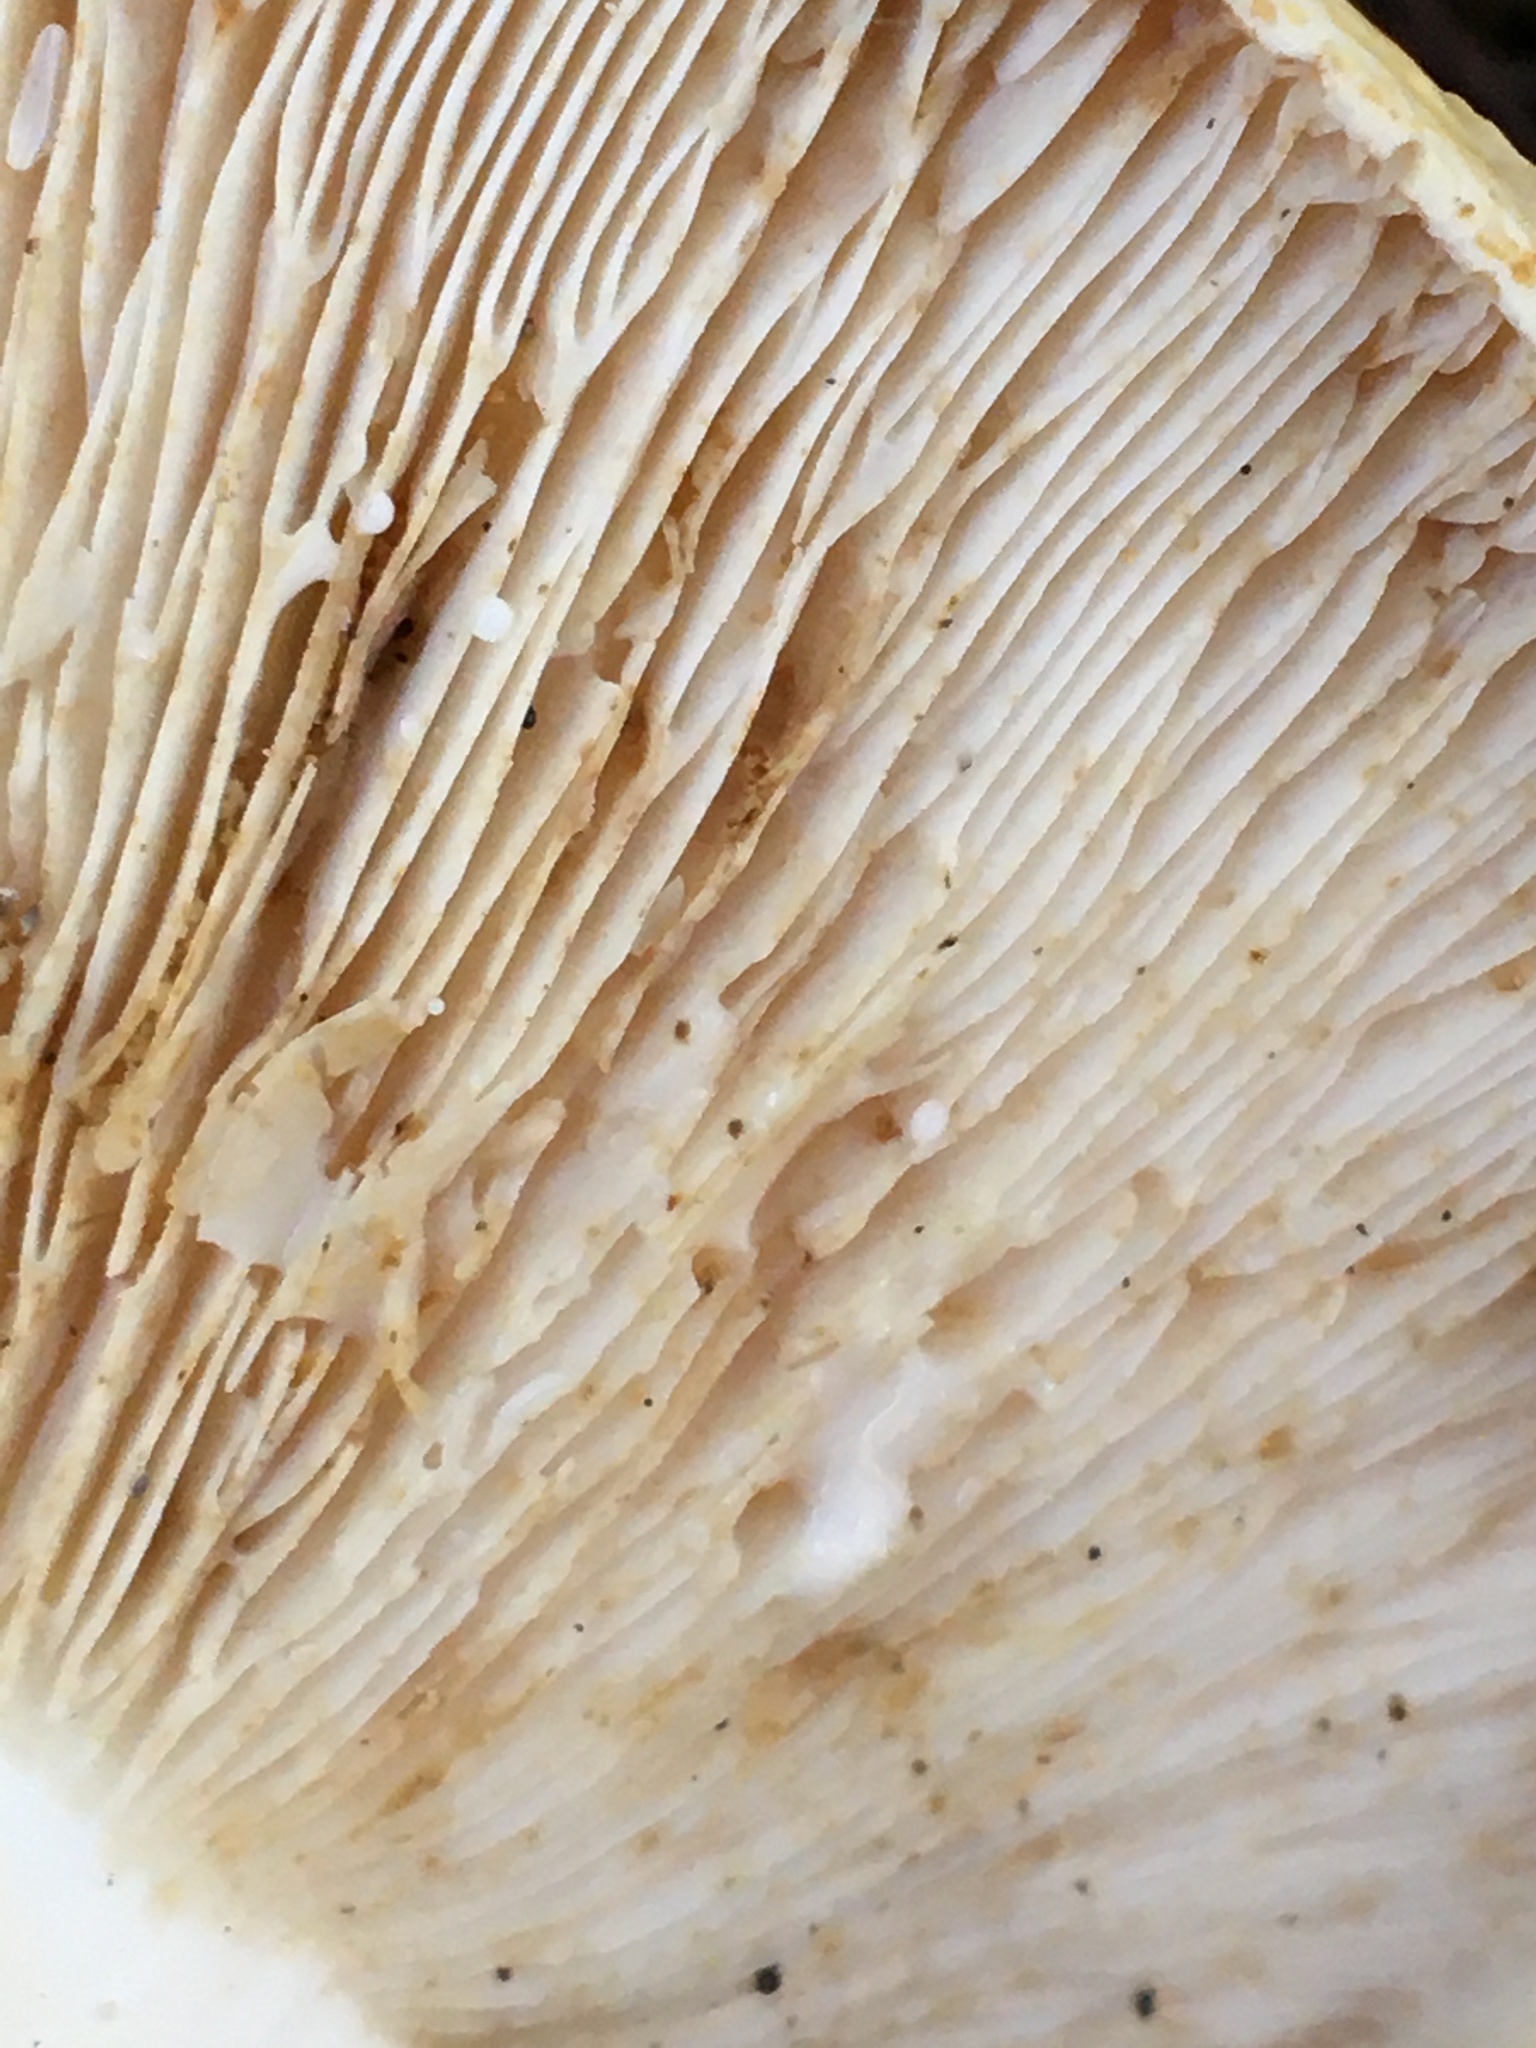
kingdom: Fungi
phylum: Basidiomycota
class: Agaricomycetes
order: Russulales
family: Russulaceae
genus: Lactifluus
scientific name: Lactifluus albopicrus
